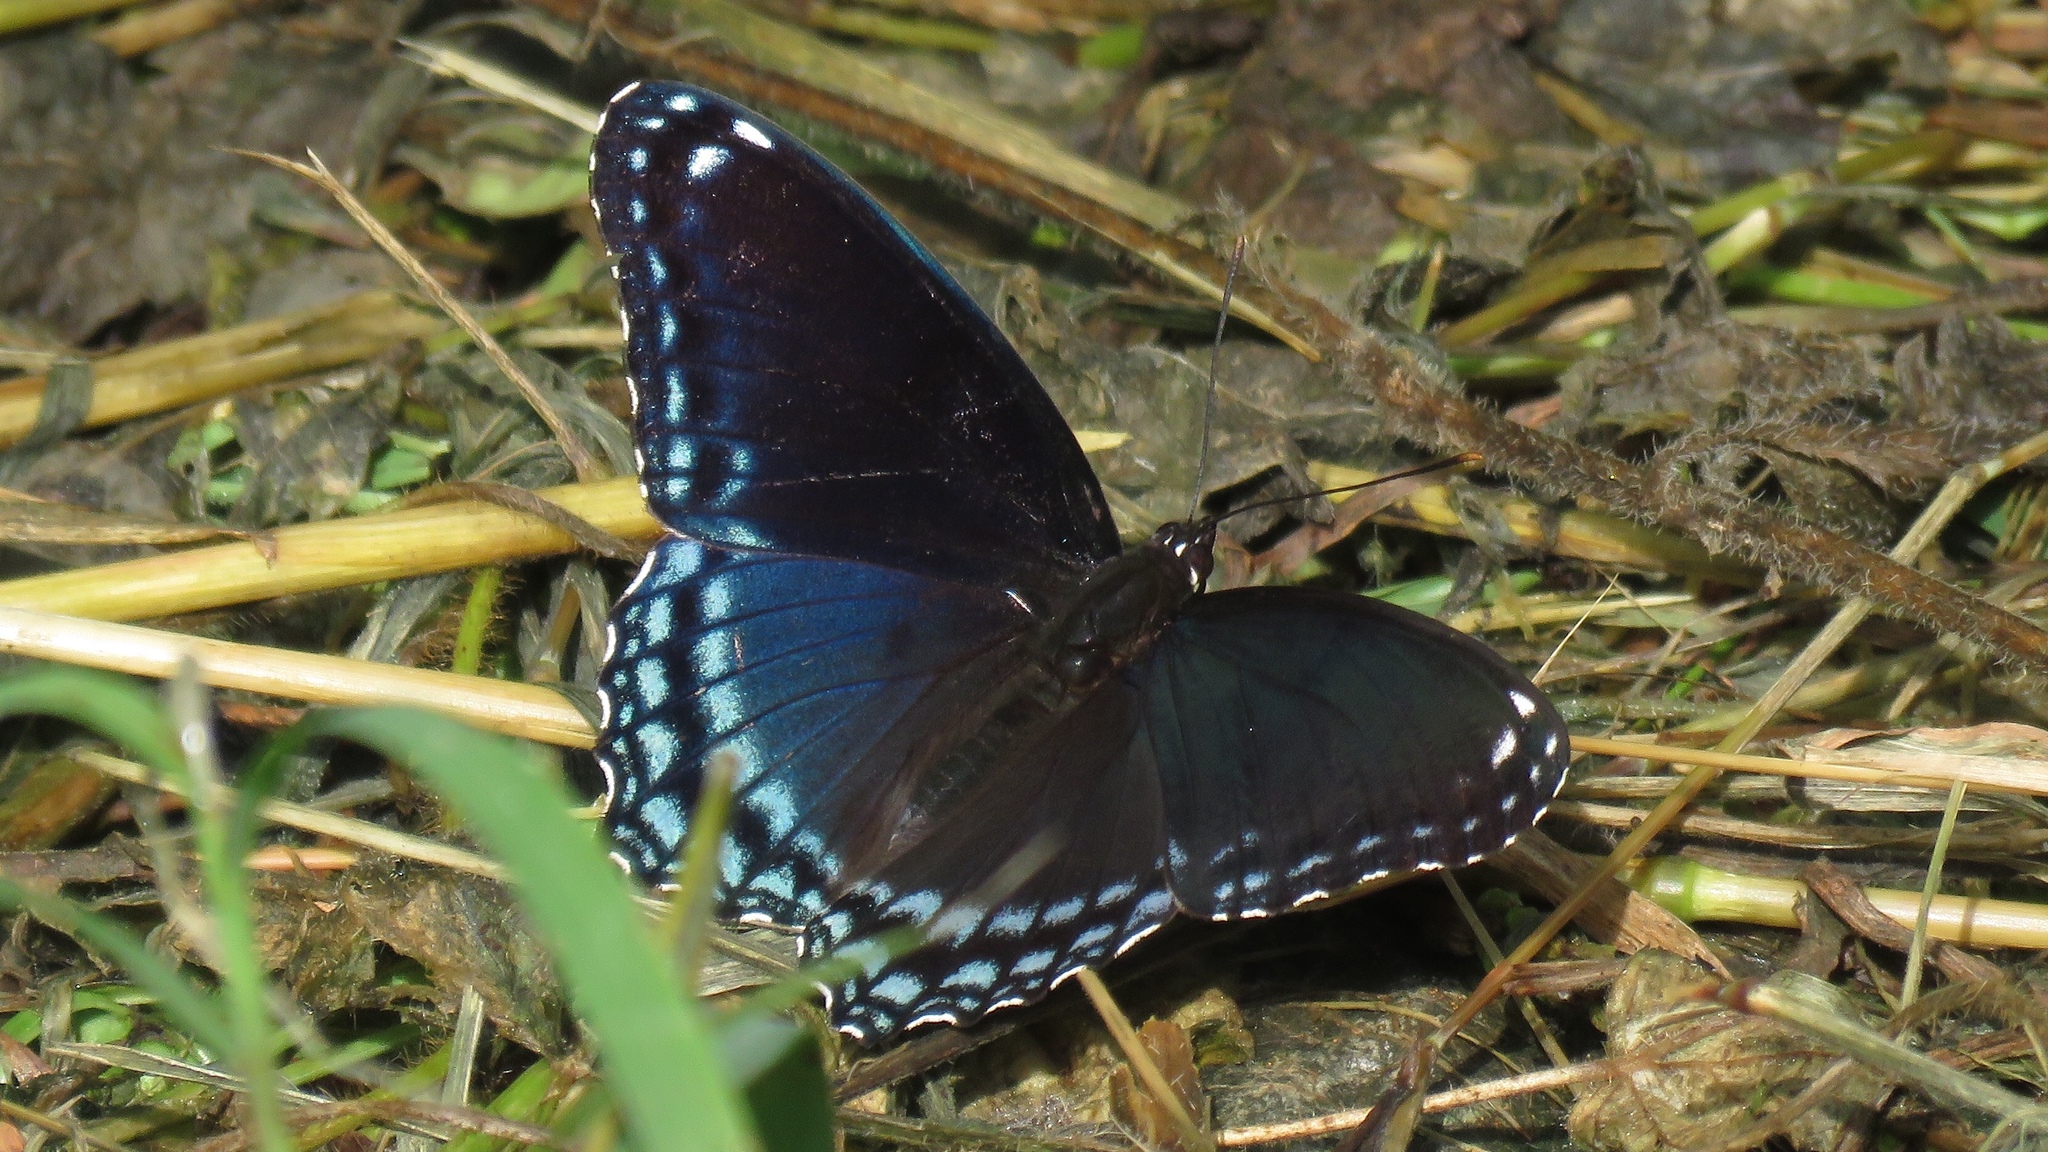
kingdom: Animalia
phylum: Arthropoda
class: Insecta
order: Lepidoptera
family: Nymphalidae
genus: Limenitis
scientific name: Limenitis astyanax
